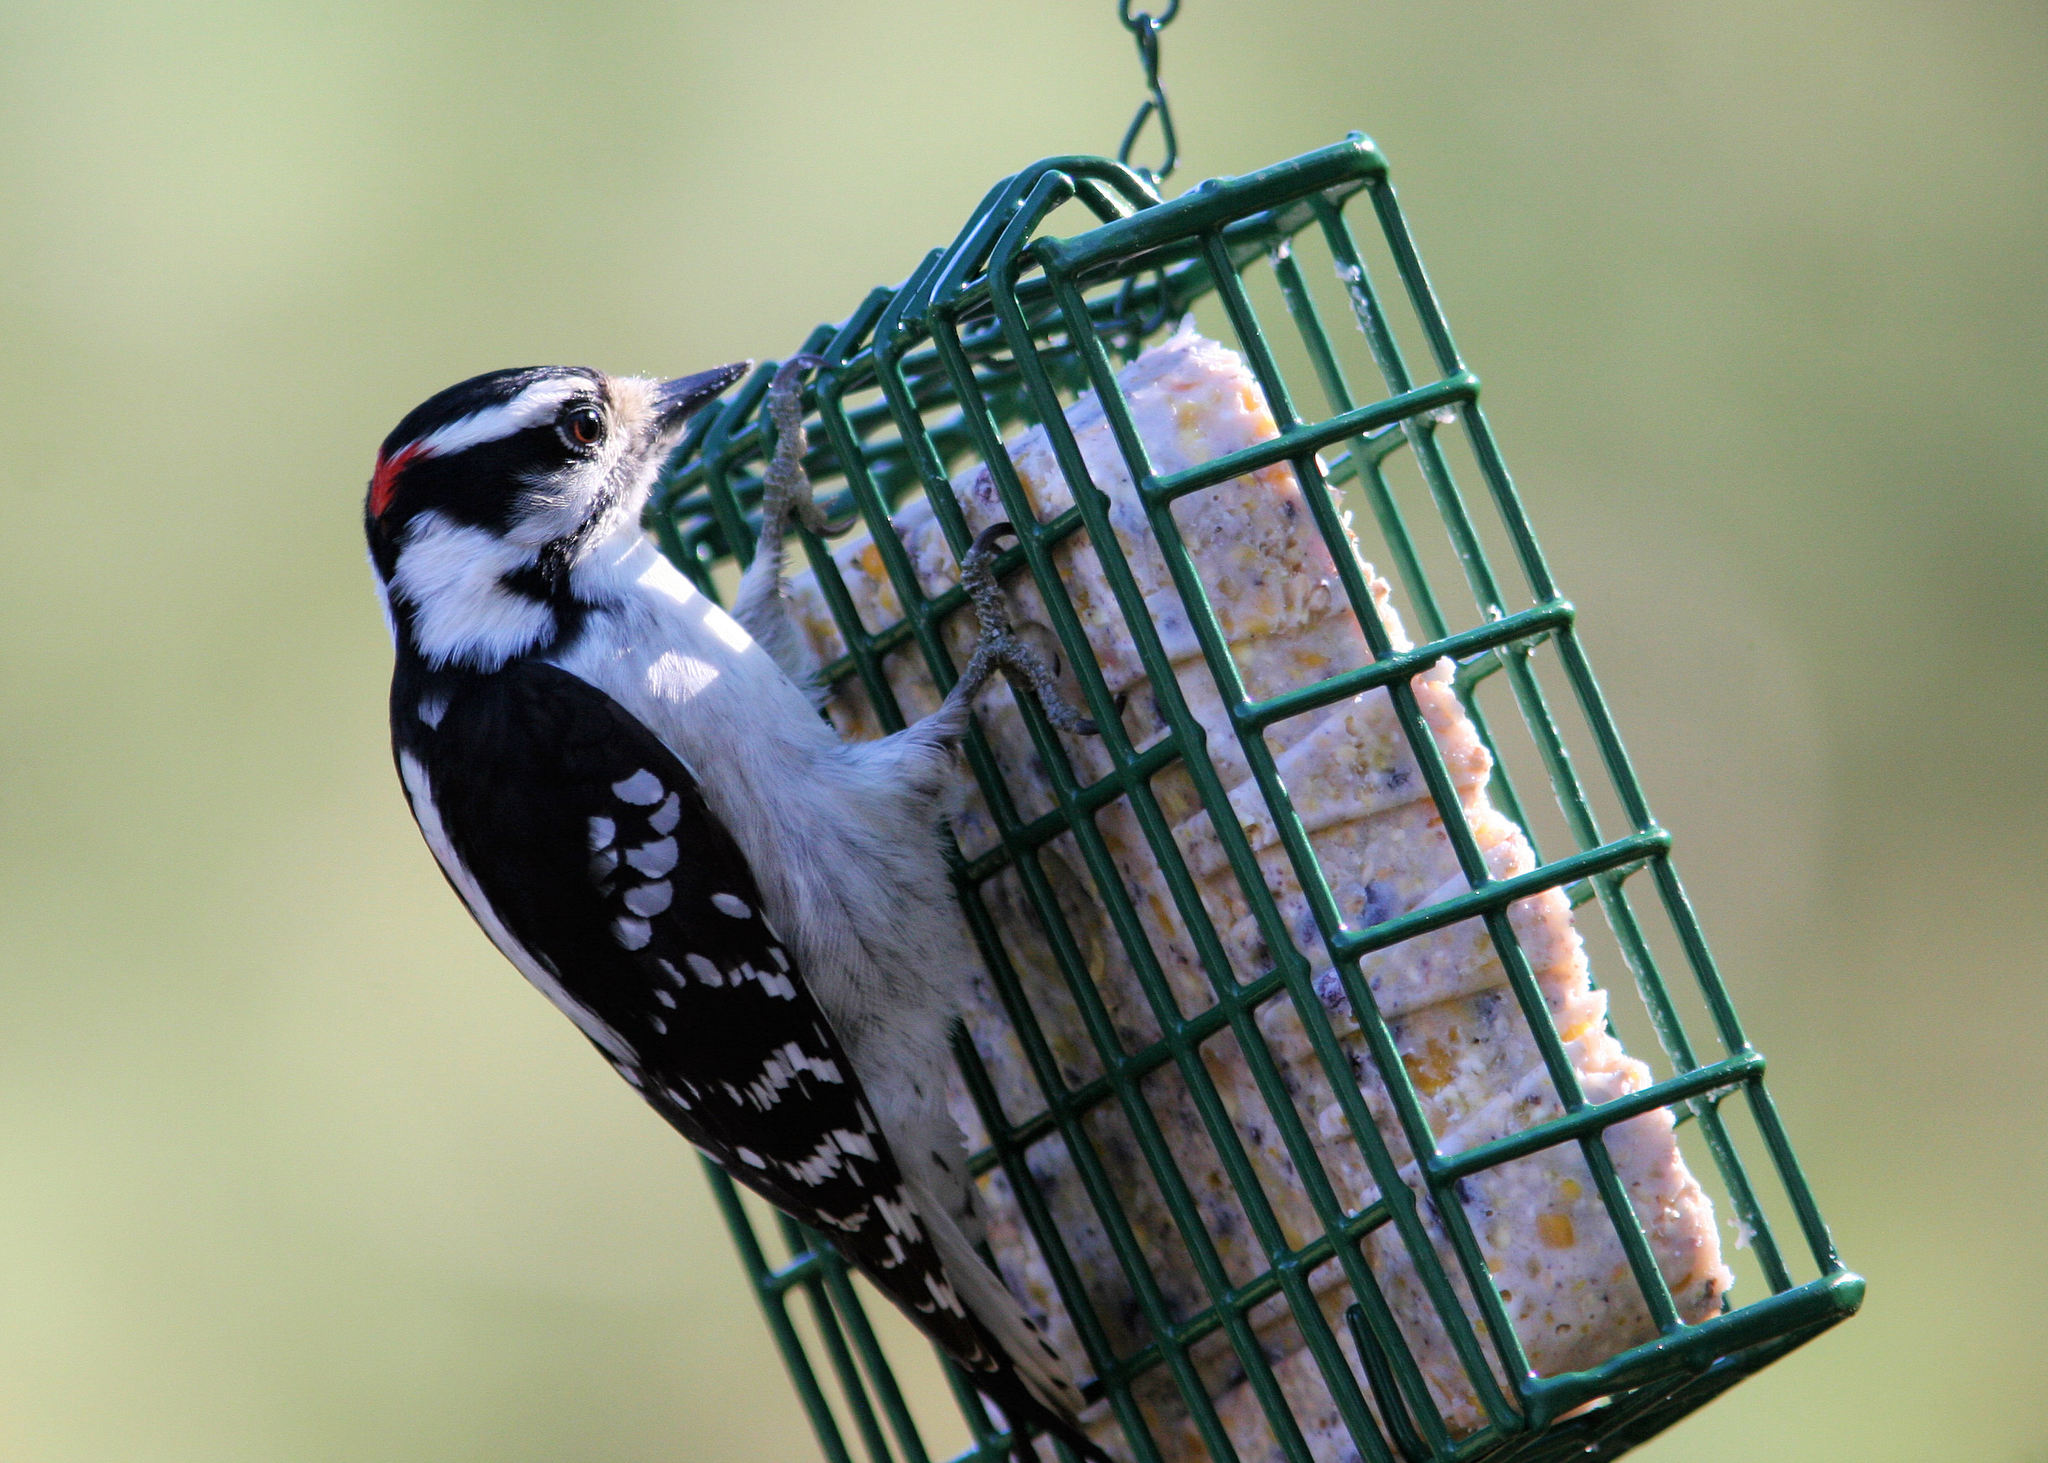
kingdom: Animalia
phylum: Chordata
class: Aves
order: Piciformes
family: Picidae
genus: Dryobates
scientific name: Dryobates pubescens
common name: Downy woodpecker
